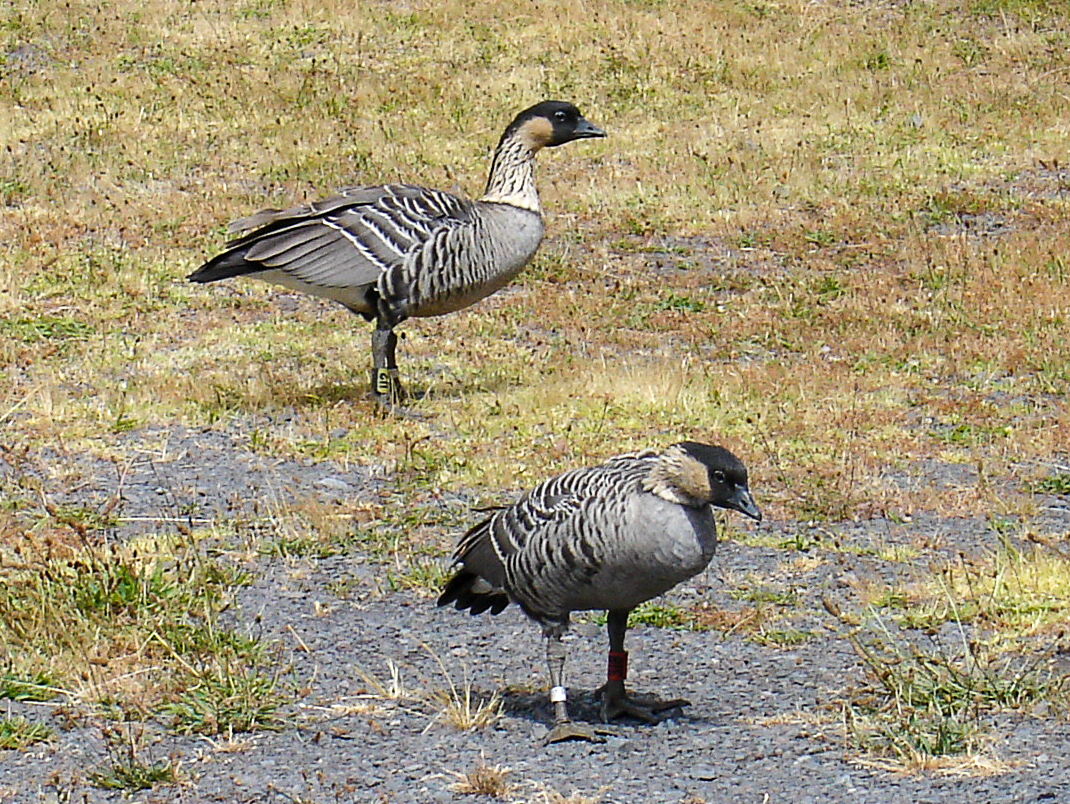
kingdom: Animalia
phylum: Chordata
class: Aves
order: Anseriformes
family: Anatidae
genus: Branta
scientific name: Branta sandvicensis
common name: Nene
